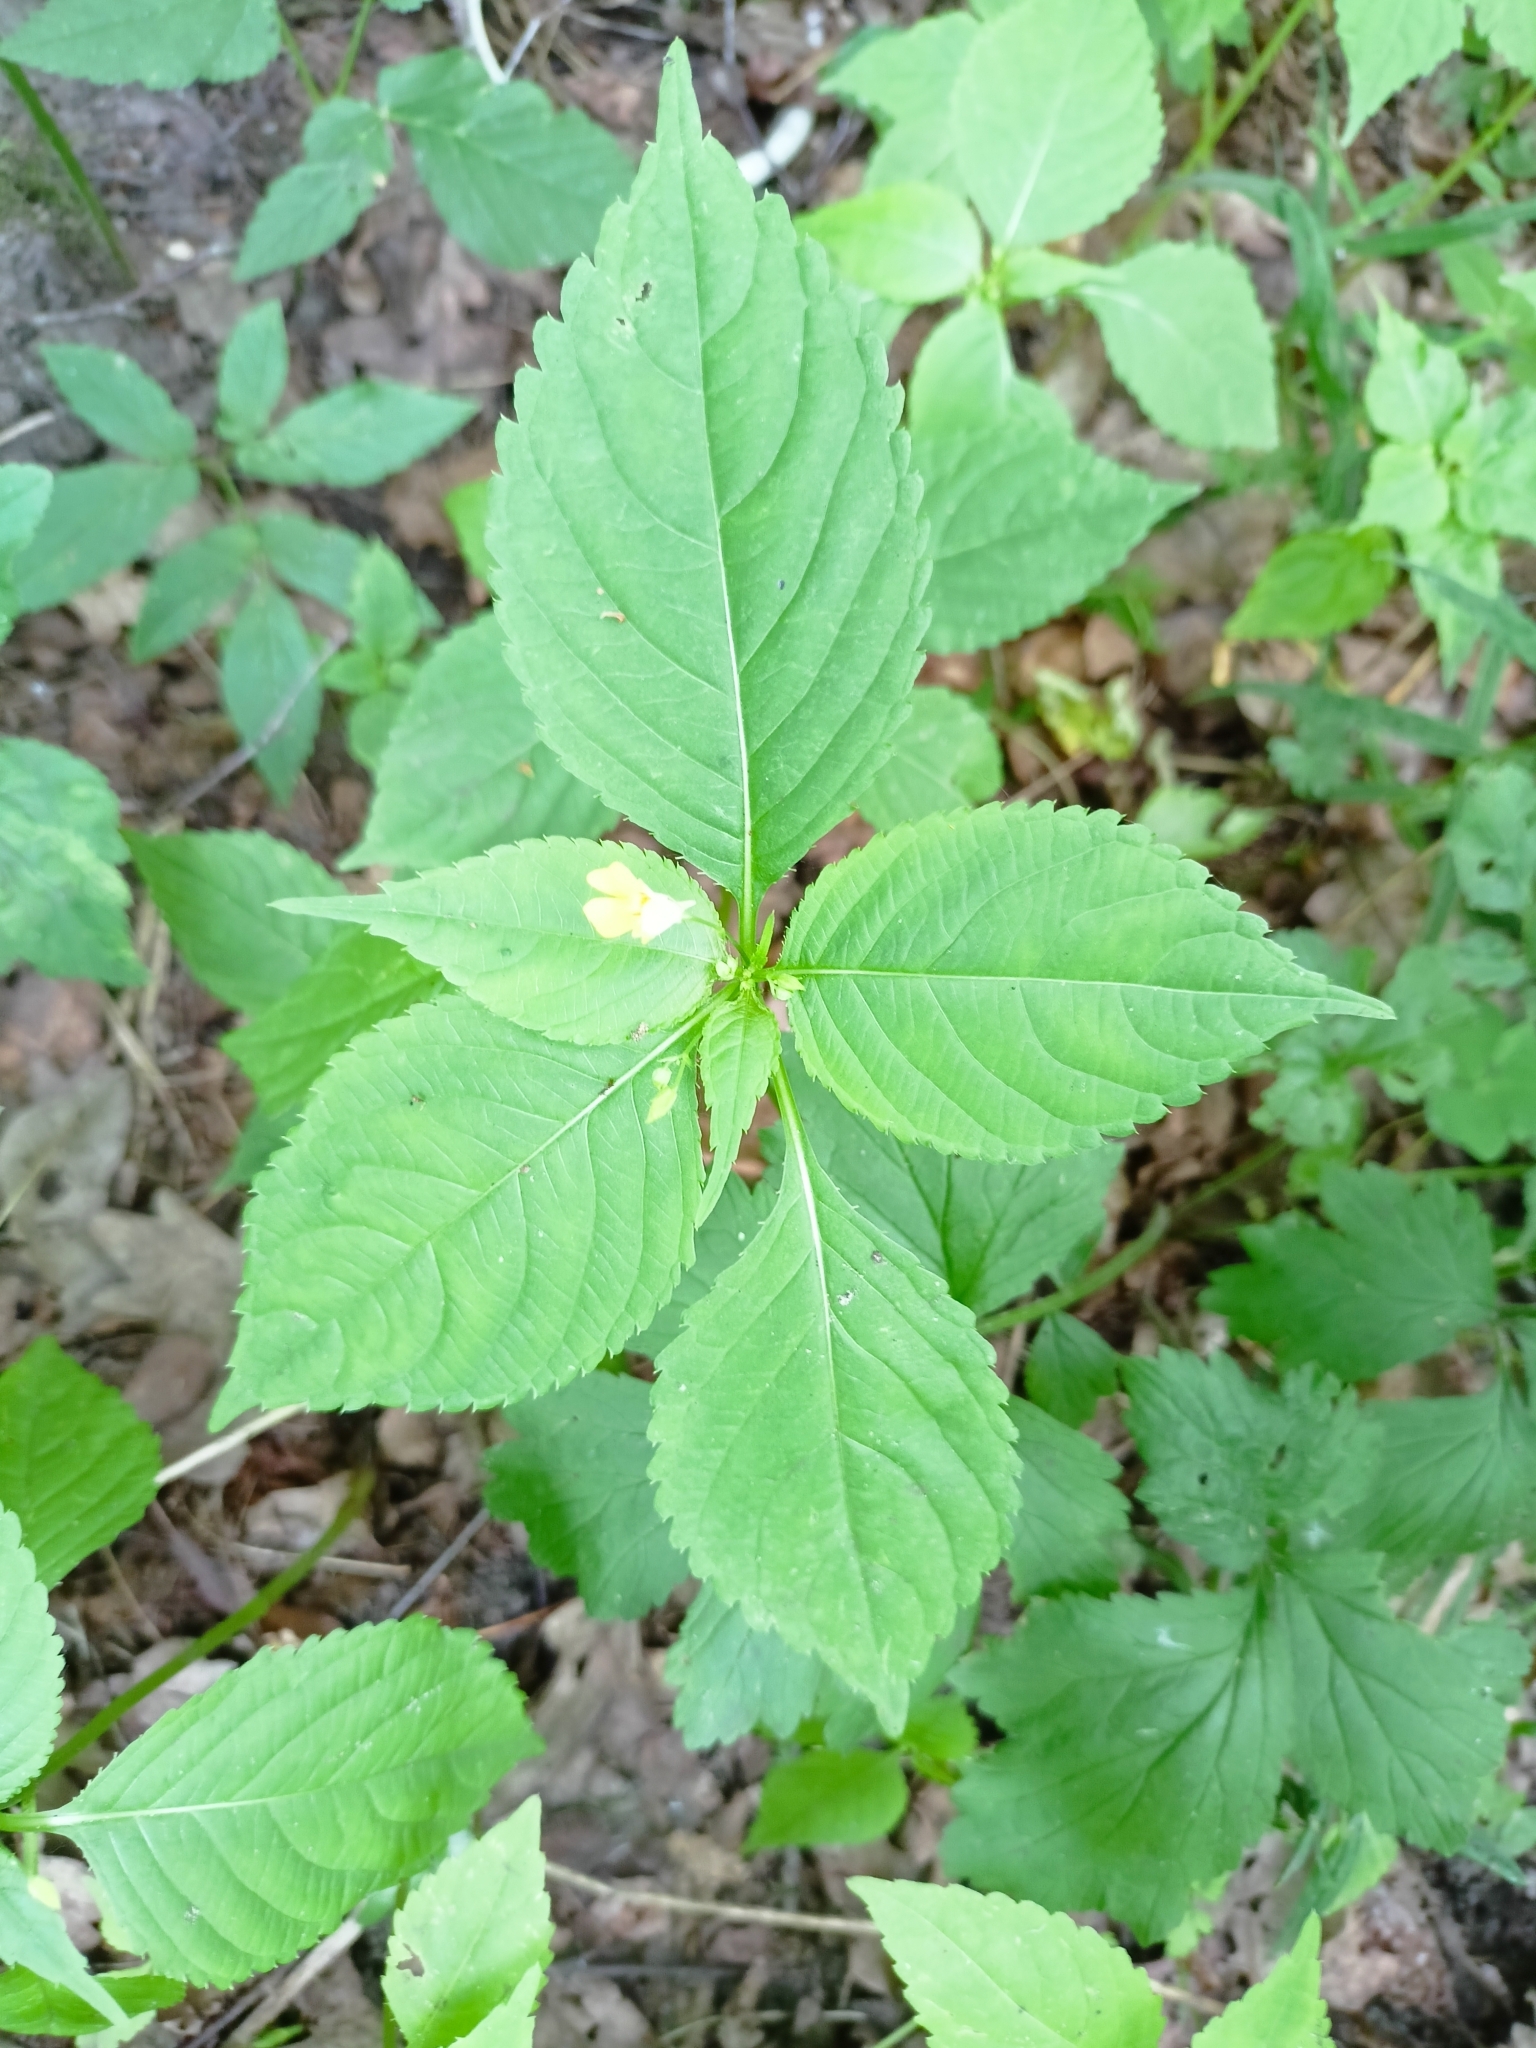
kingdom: Plantae
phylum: Tracheophyta
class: Magnoliopsida
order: Ericales
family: Balsaminaceae
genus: Impatiens
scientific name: Impatiens parviflora
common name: Small balsam
